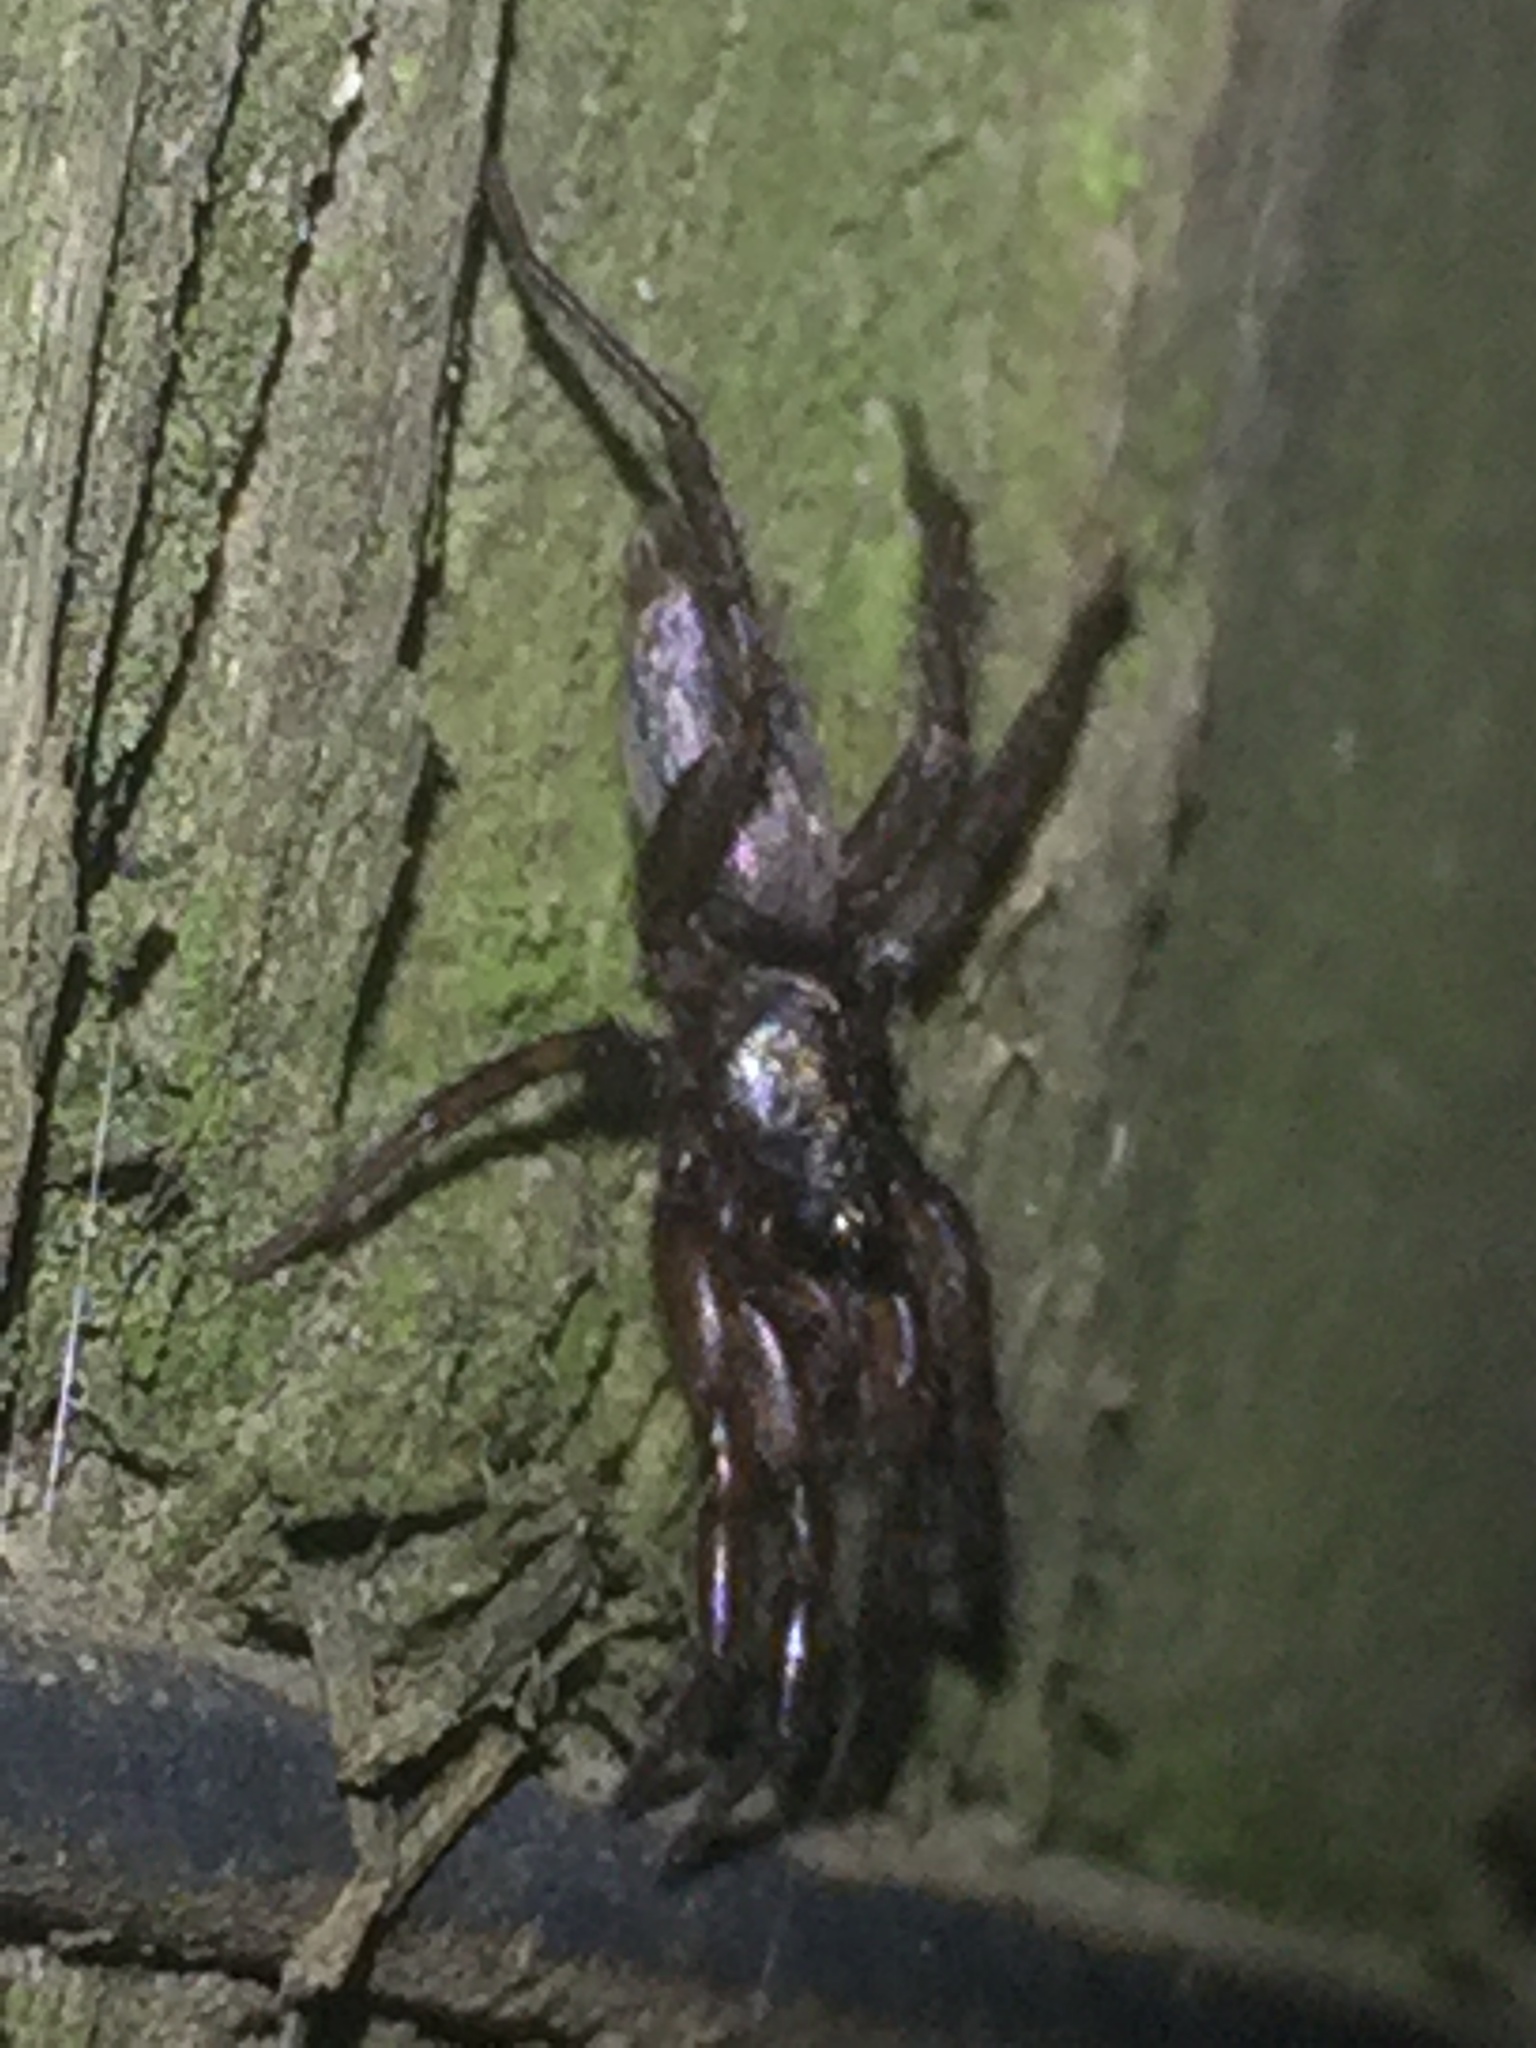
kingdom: Animalia
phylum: Arthropoda
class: Arachnida
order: Araneae
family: Gnaphosidae
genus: Scotophaeus
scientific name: Scotophaeus pretiosus
